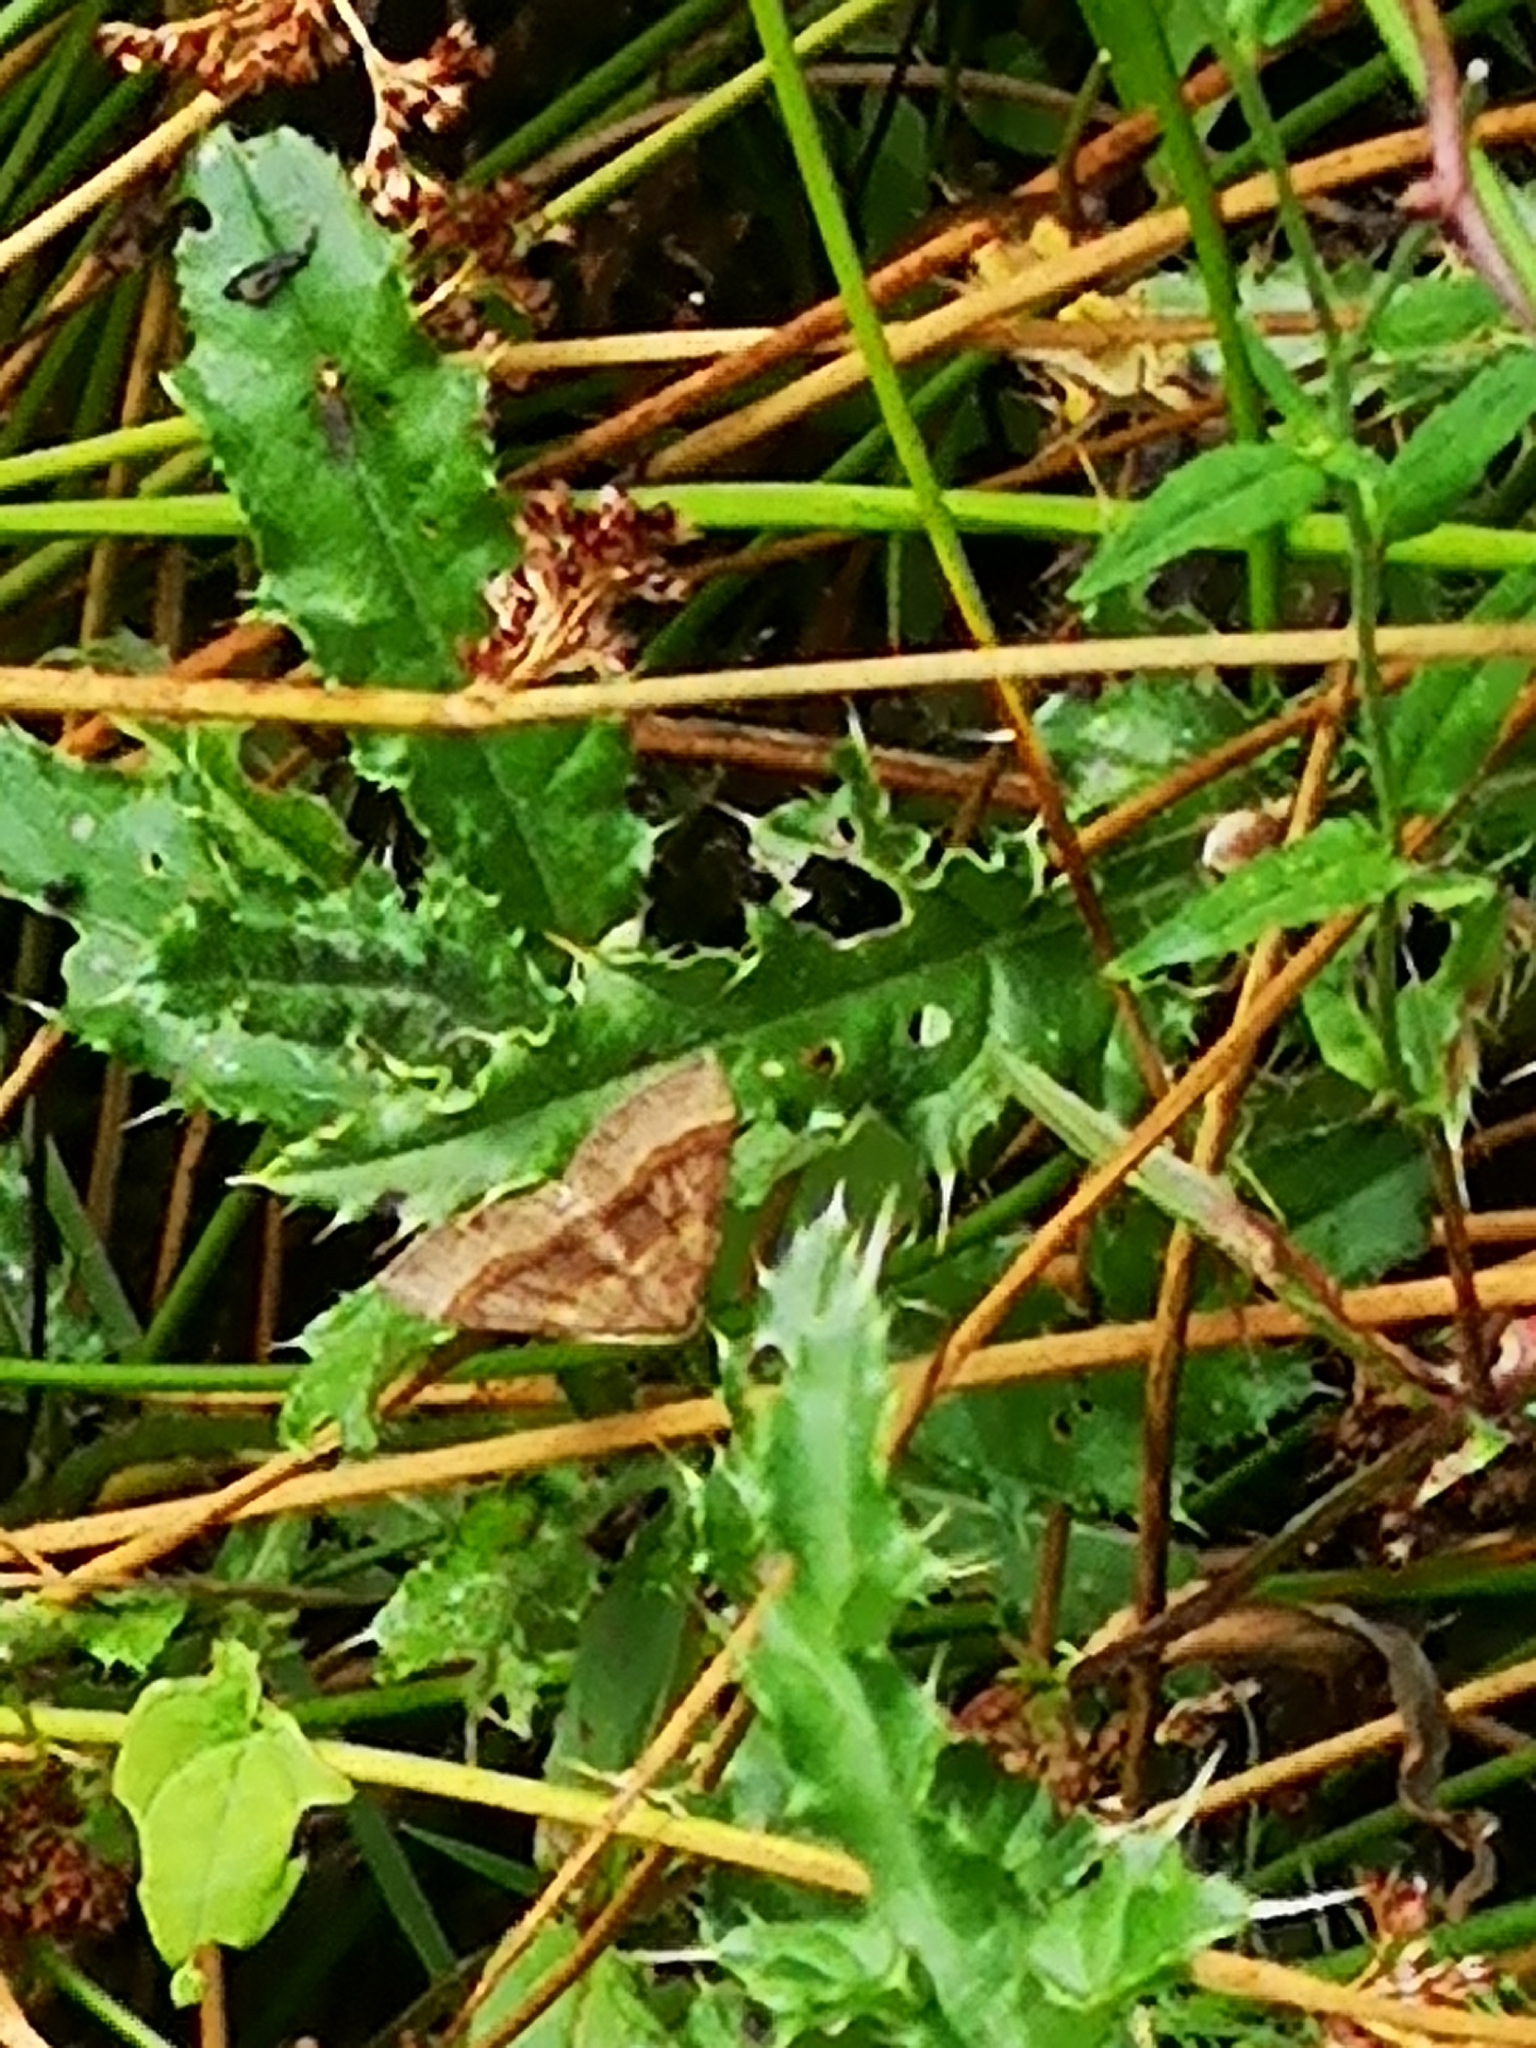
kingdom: Animalia
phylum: Arthropoda
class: Insecta
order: Lepidoptera
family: Geometridae
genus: Scotopteryx
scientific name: Scotopteryx chenopodiata
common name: Shaded broad-bar
